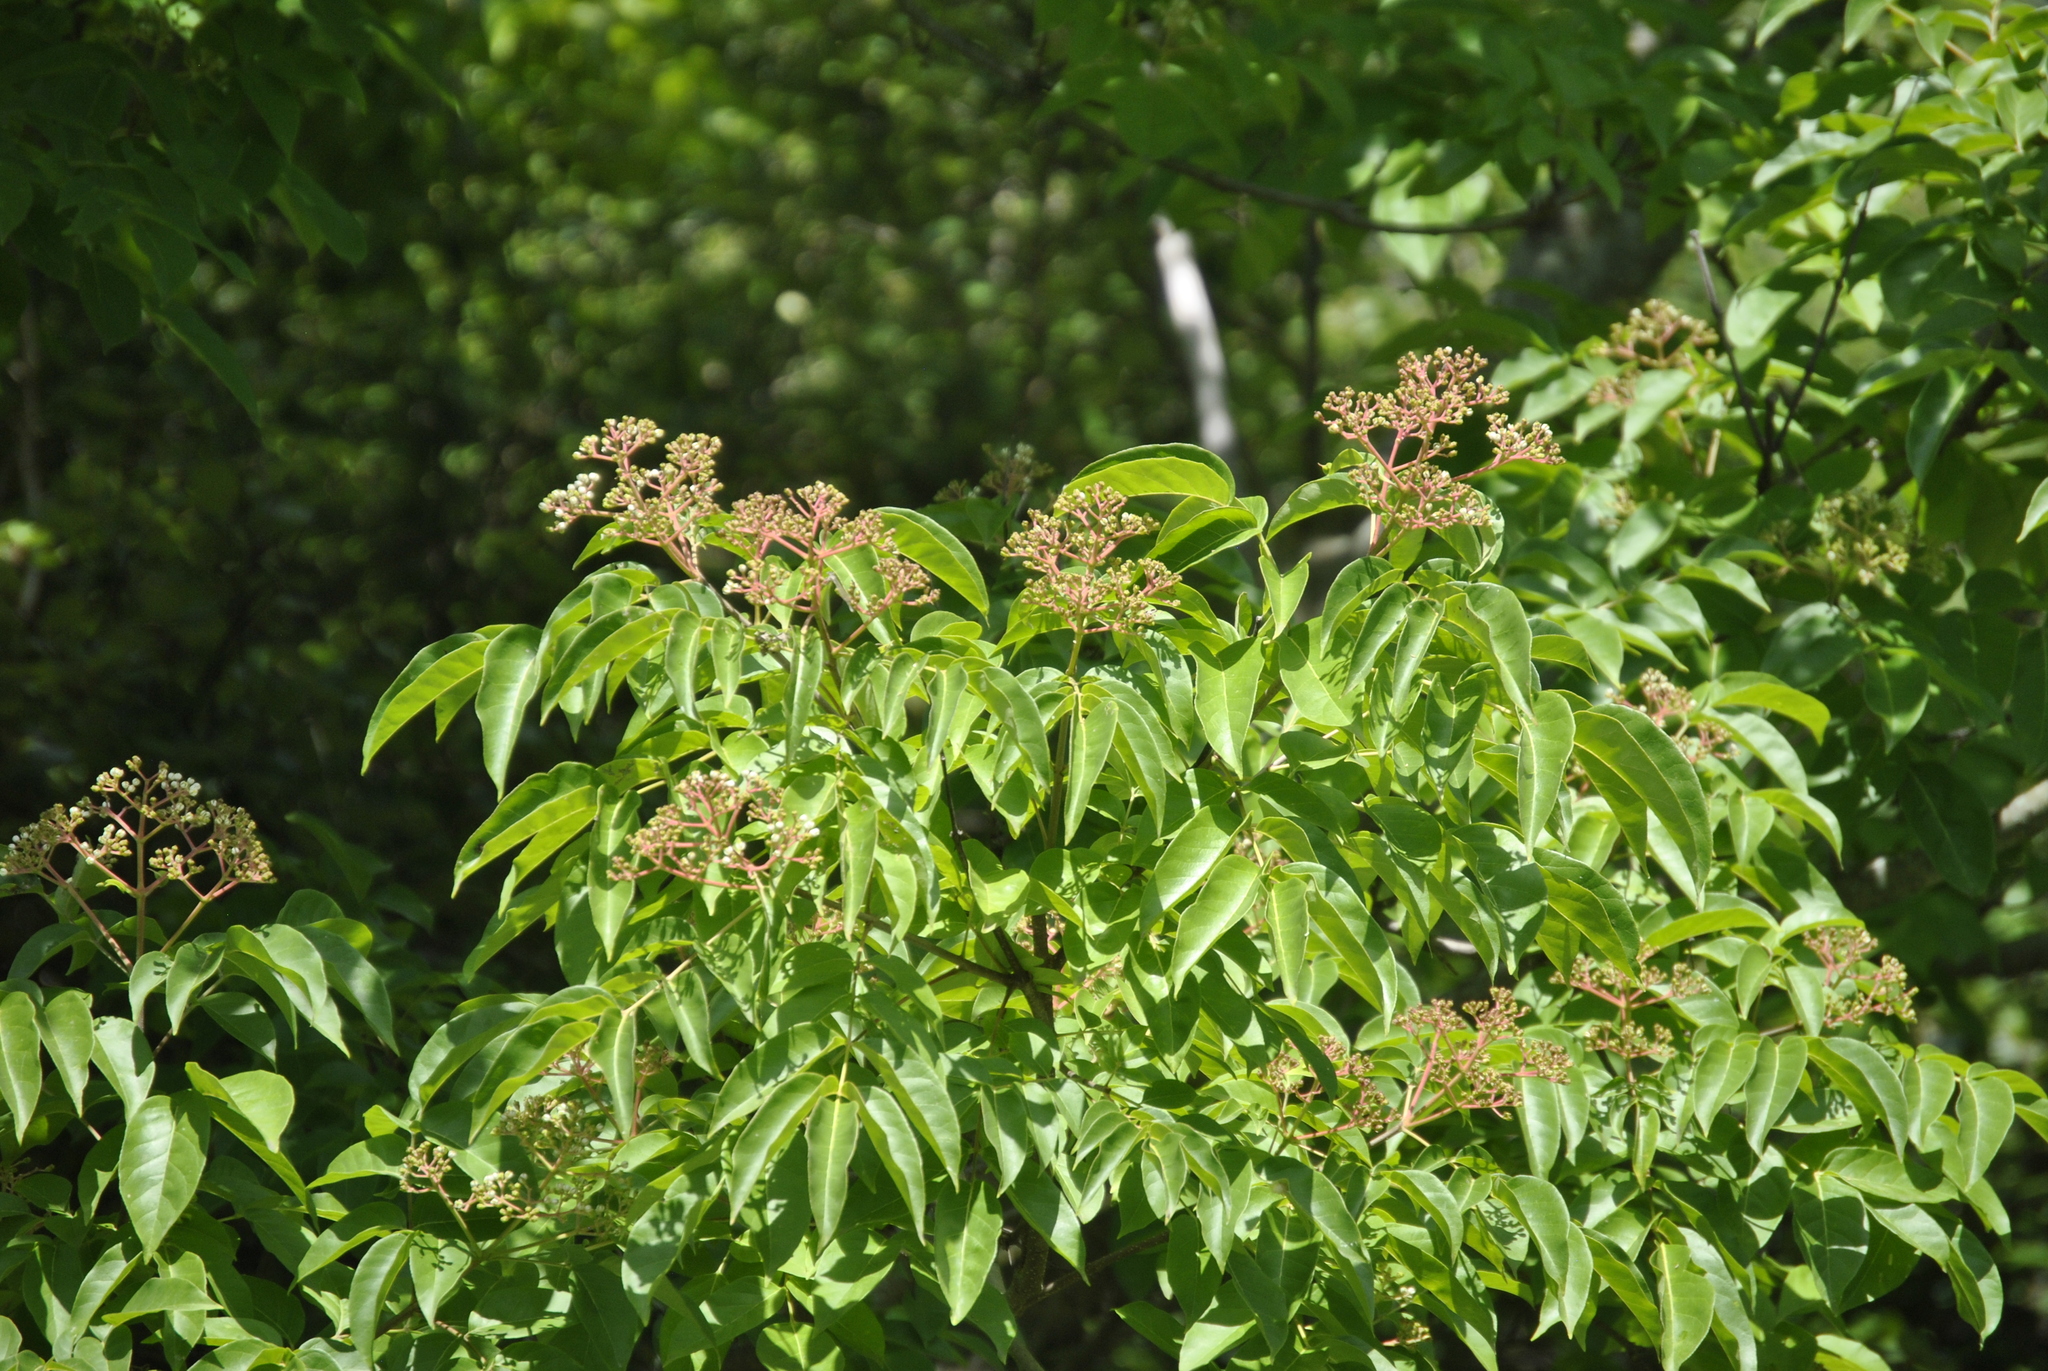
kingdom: Plantae
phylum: Tracheophyta
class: Magnoliopsida
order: Dipsacales
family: Viburnaceae
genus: Sambucus
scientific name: Sambucus canadensis
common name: American elder
